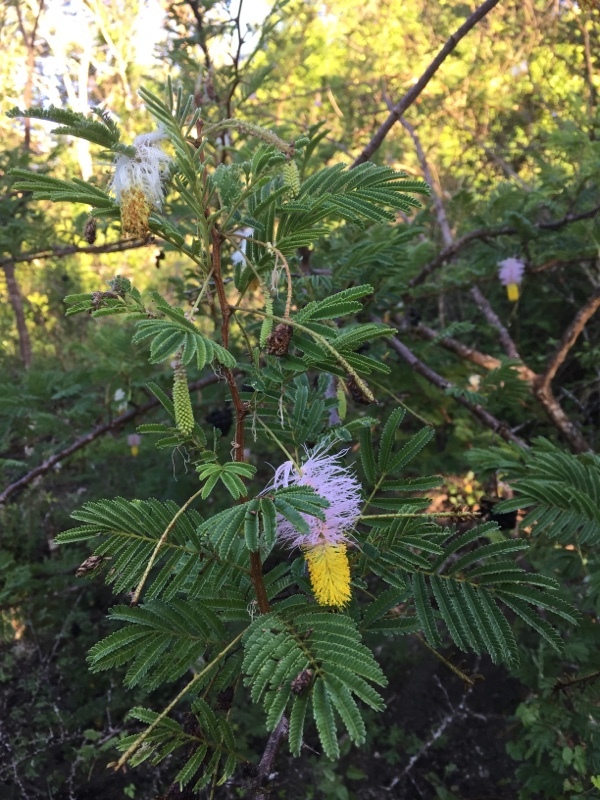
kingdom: Plantae
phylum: Tracheophyta
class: Magnoliopsida
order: Fabales
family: Fabaceae
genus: Dichrostachys
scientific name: Dichrostachys cinerea
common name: Sicklebush
